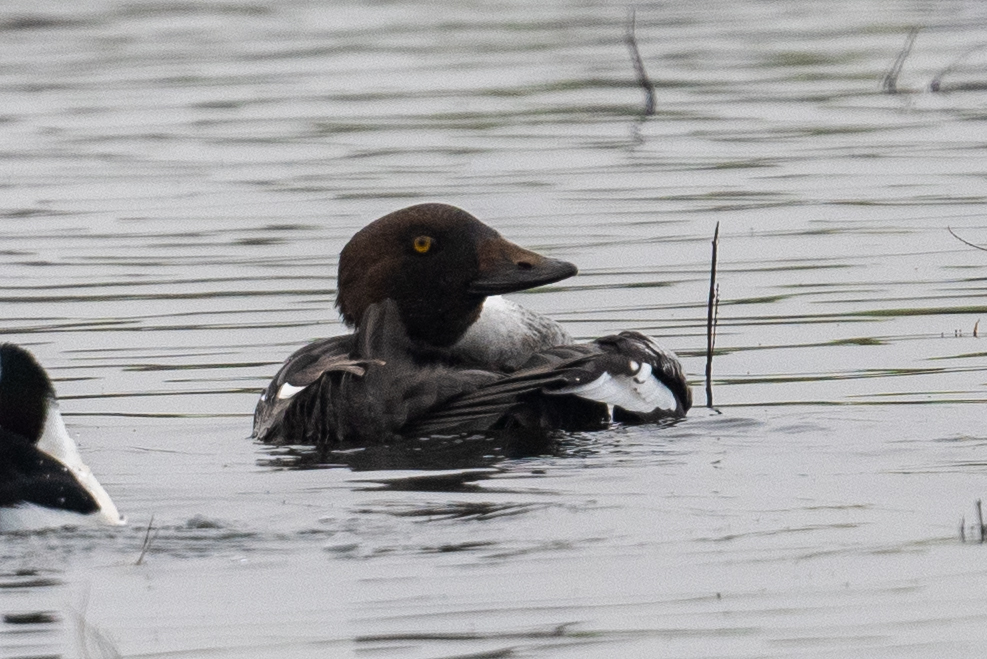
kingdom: Animalia
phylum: Chordata
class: Aves
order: Anseriformes
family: Anatidae
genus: Bucephala
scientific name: Bucephala clangula
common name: Common goldeneye
